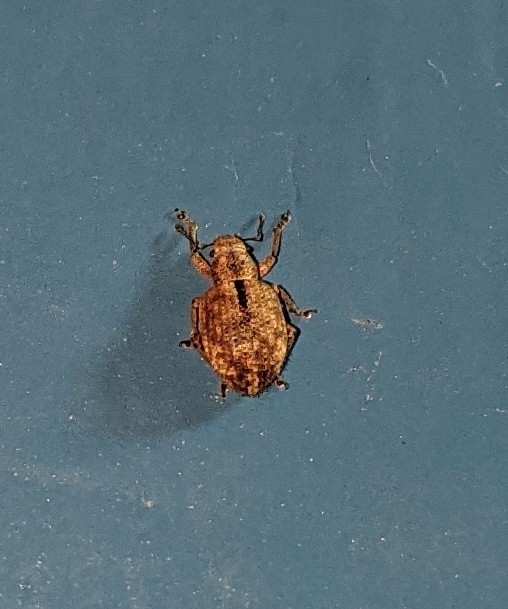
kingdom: Animalia
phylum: Arthropoda
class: Insecta
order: Coleoptera
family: Curculionidae
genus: Strophosoma
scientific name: Strophosoma melanogrammum
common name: Weevil
